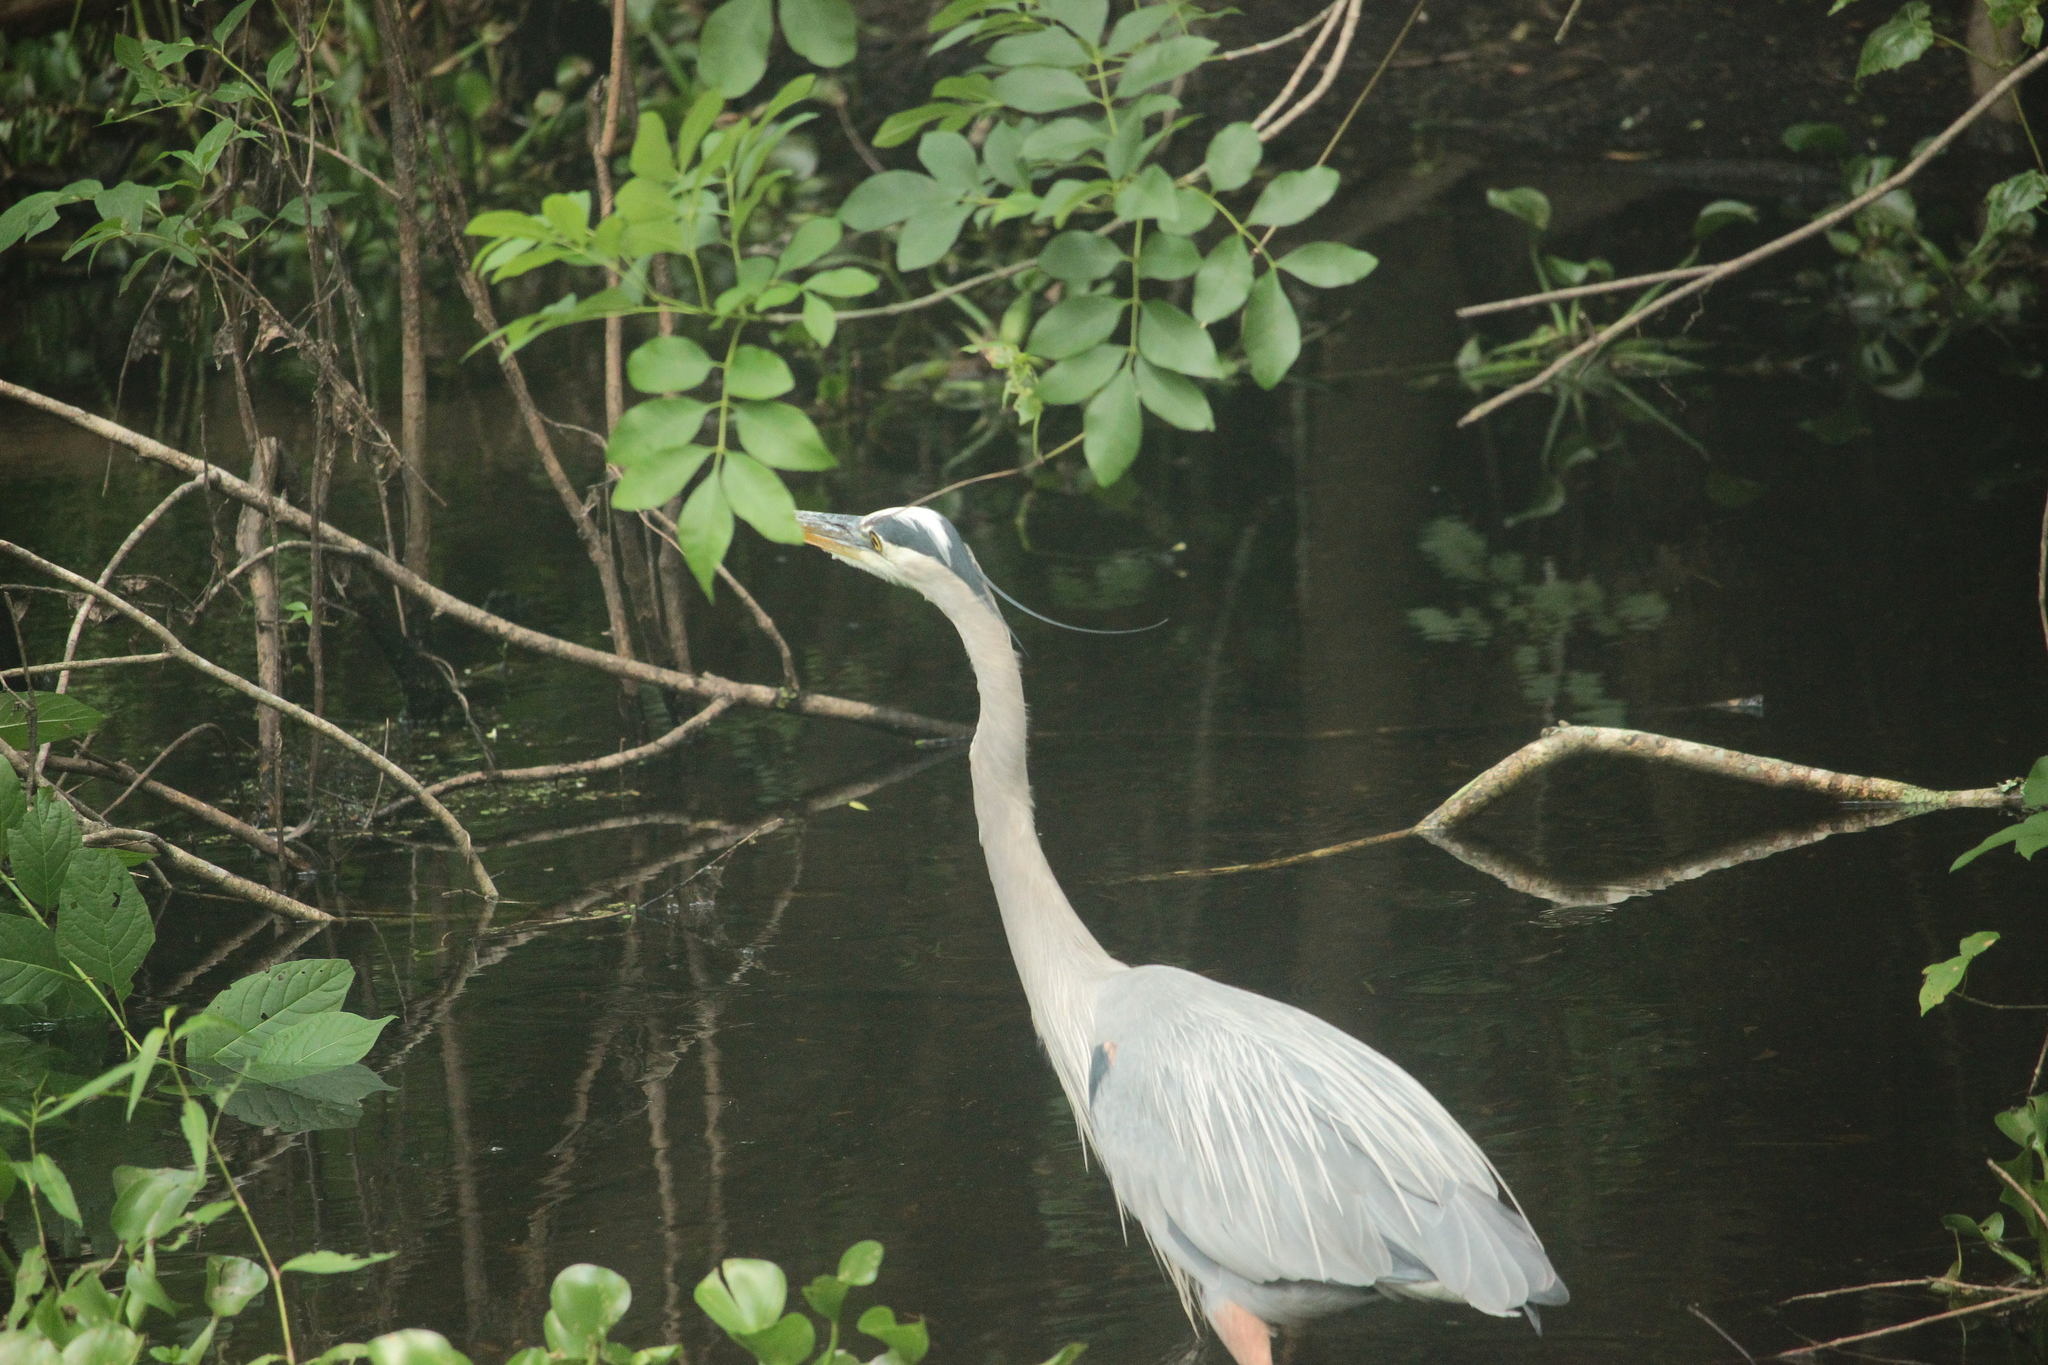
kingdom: Animalia
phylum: Chordata
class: Aves
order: Pelecaniformes
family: Ardeidae
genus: Ardea
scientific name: Ardea herodias
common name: Great blue heron
